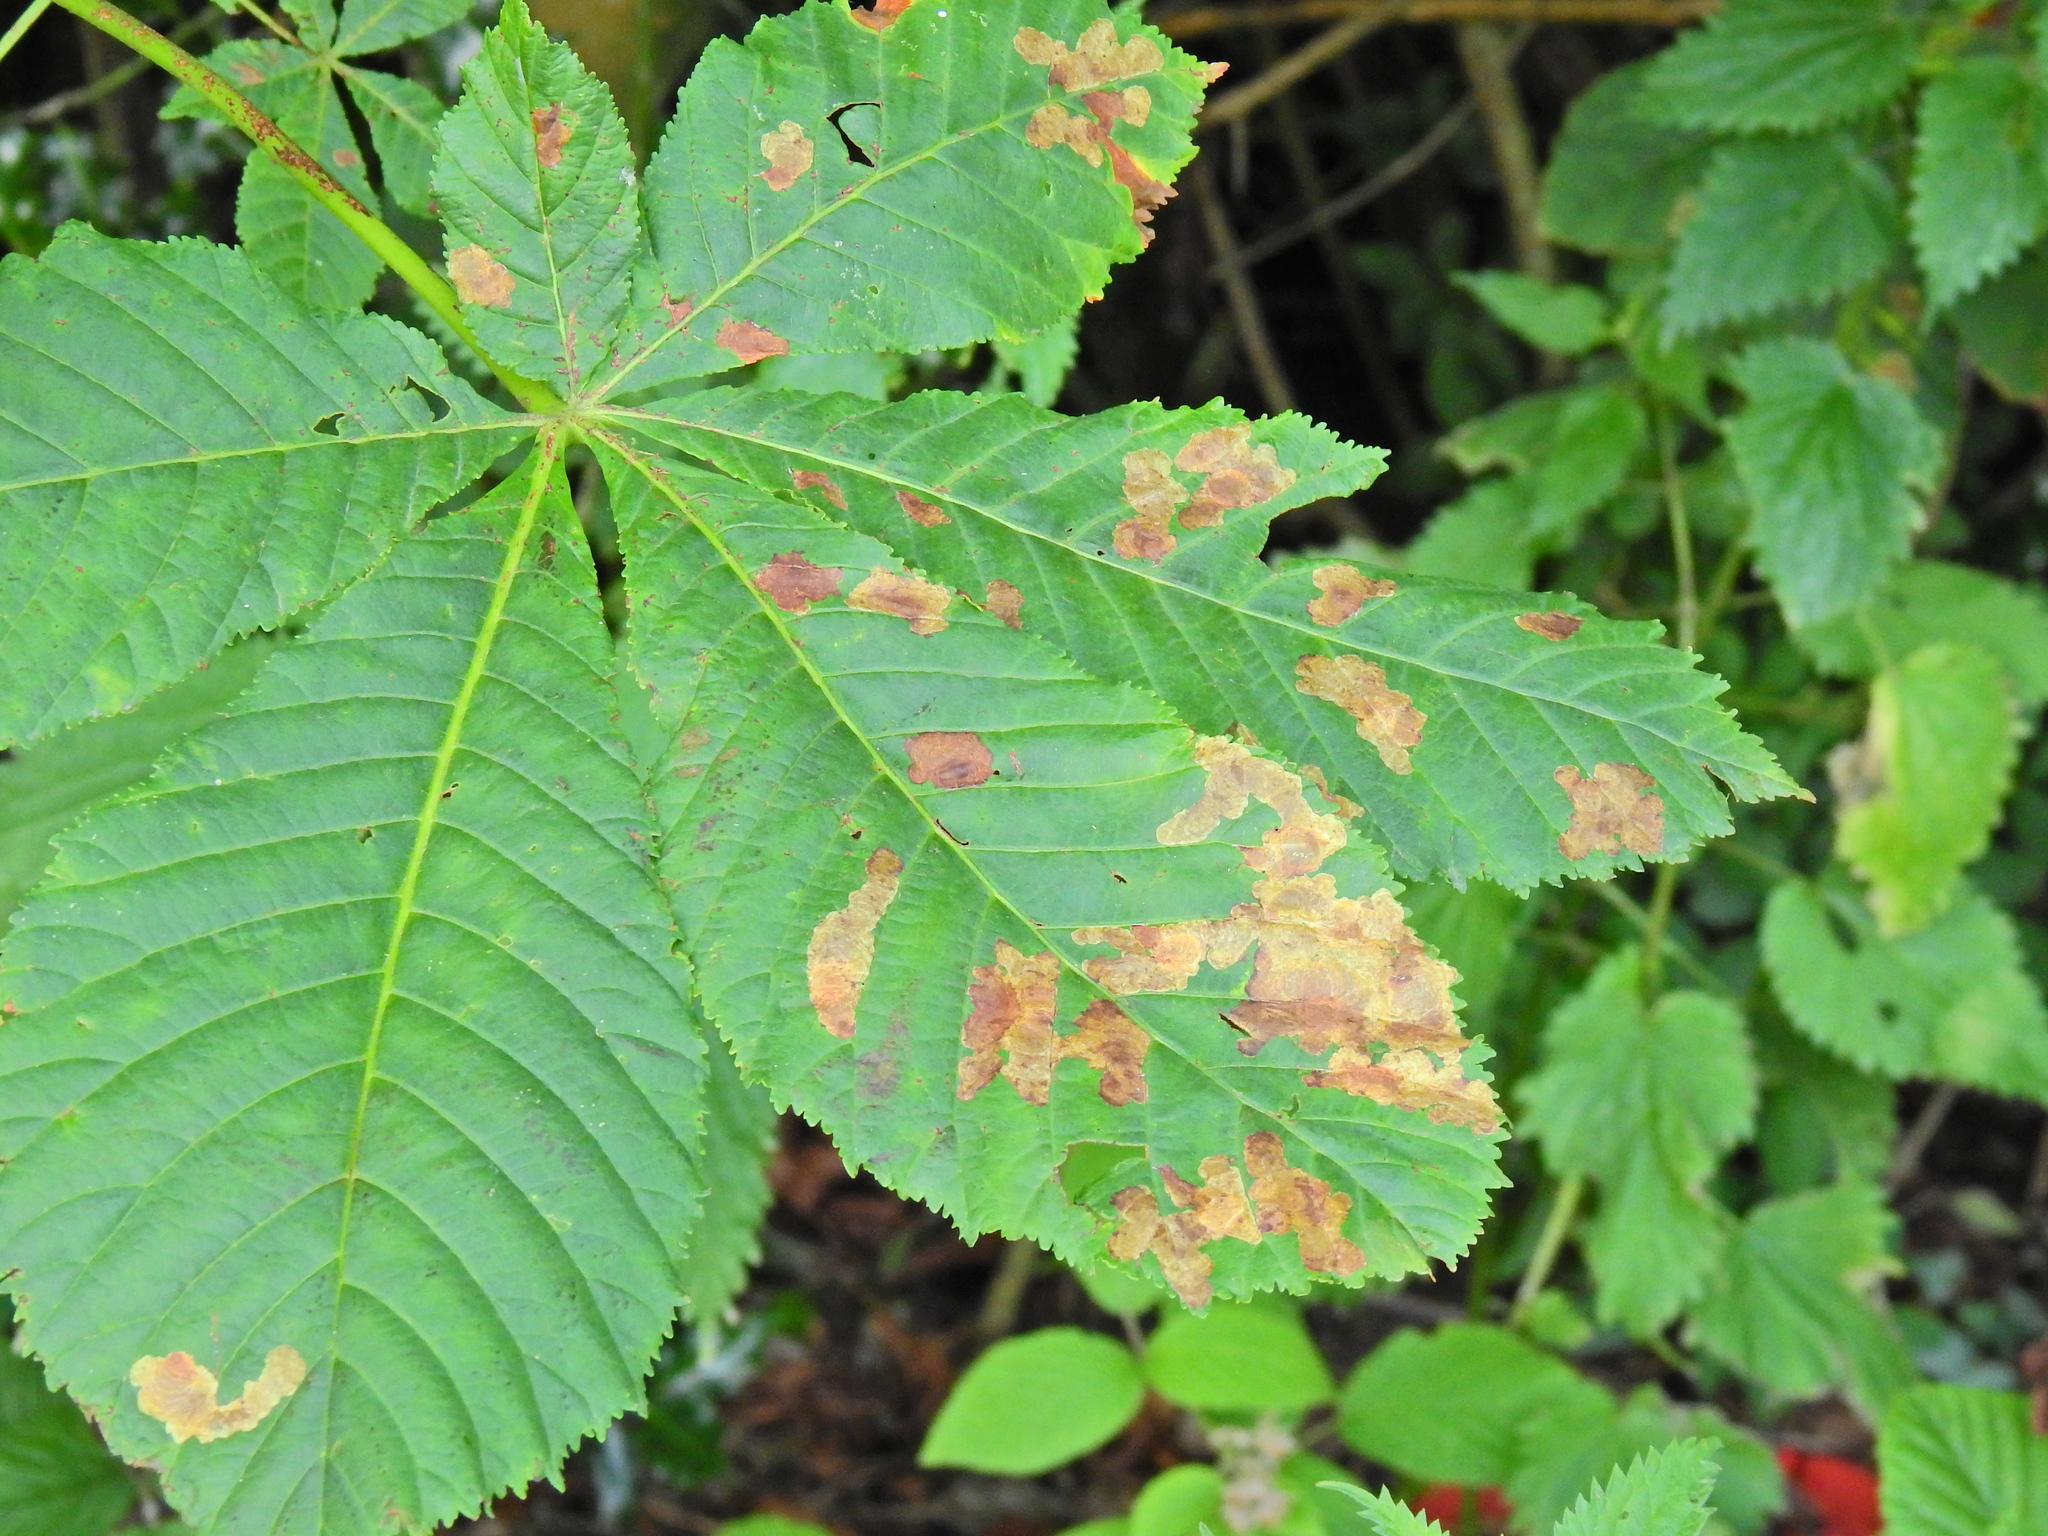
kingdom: Animalia
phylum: Arthropoda
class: Insecta
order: Lepidoptera
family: Gracillariidae
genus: Cameraria
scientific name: Cameraria ohridella
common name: Horse-chestnut leaf-miner
